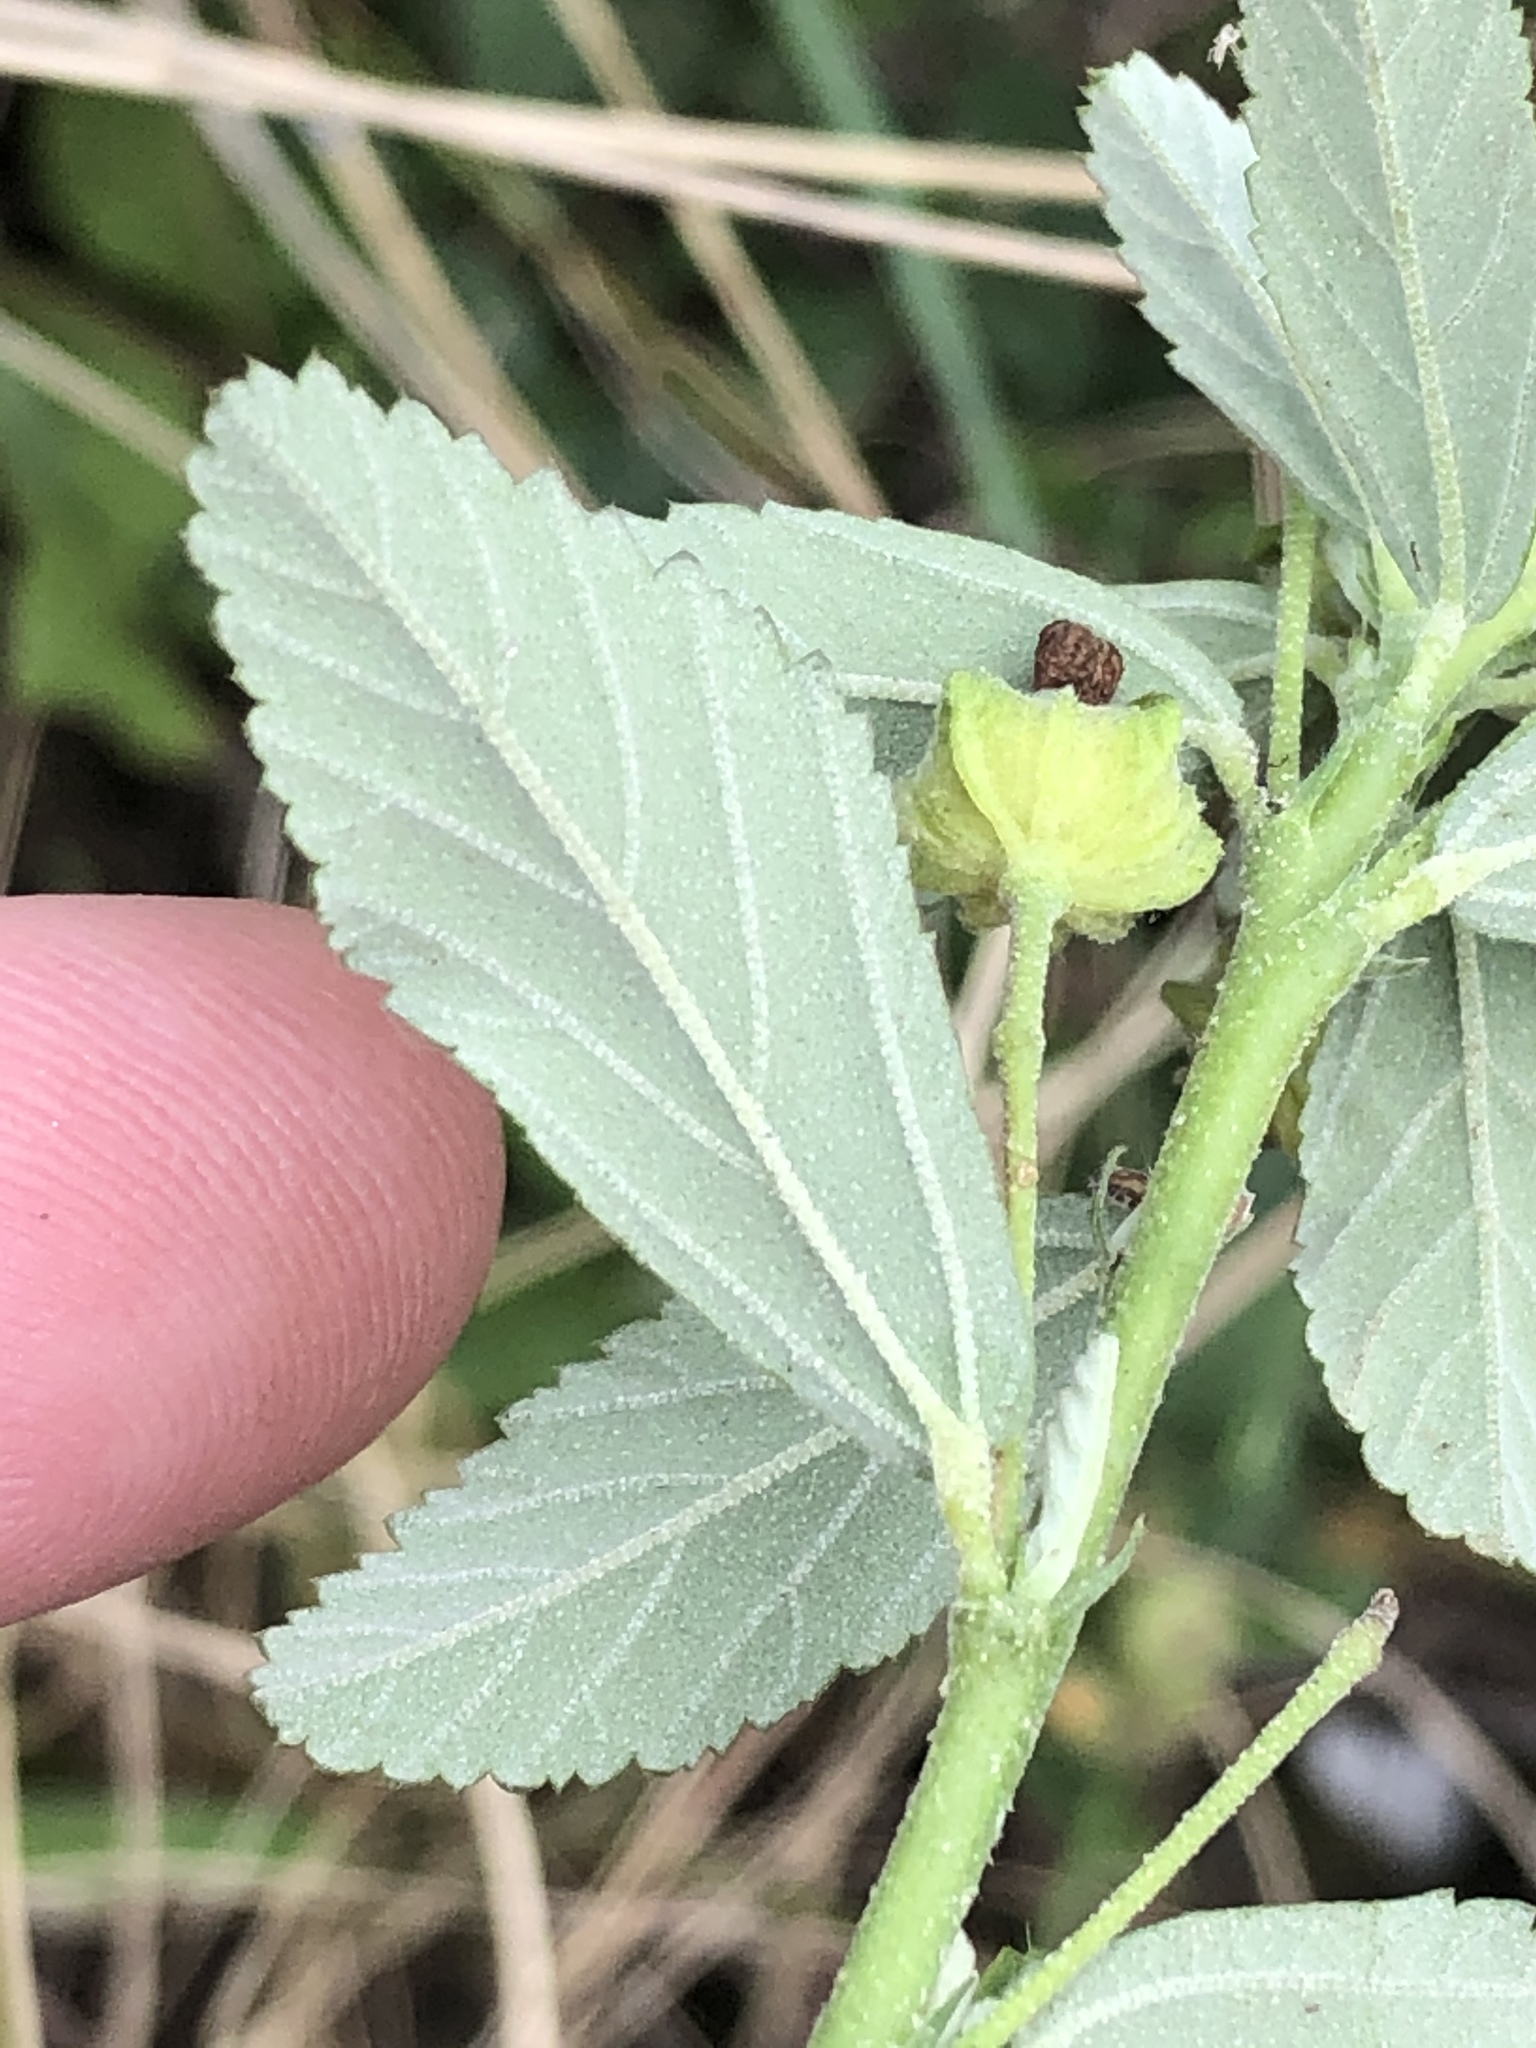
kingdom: Plantae
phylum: Tracheophyta
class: Magnoliopsida
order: Malvales
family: Malvaceae
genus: Sida
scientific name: Sida rhombifolia
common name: Queensland-hemp
